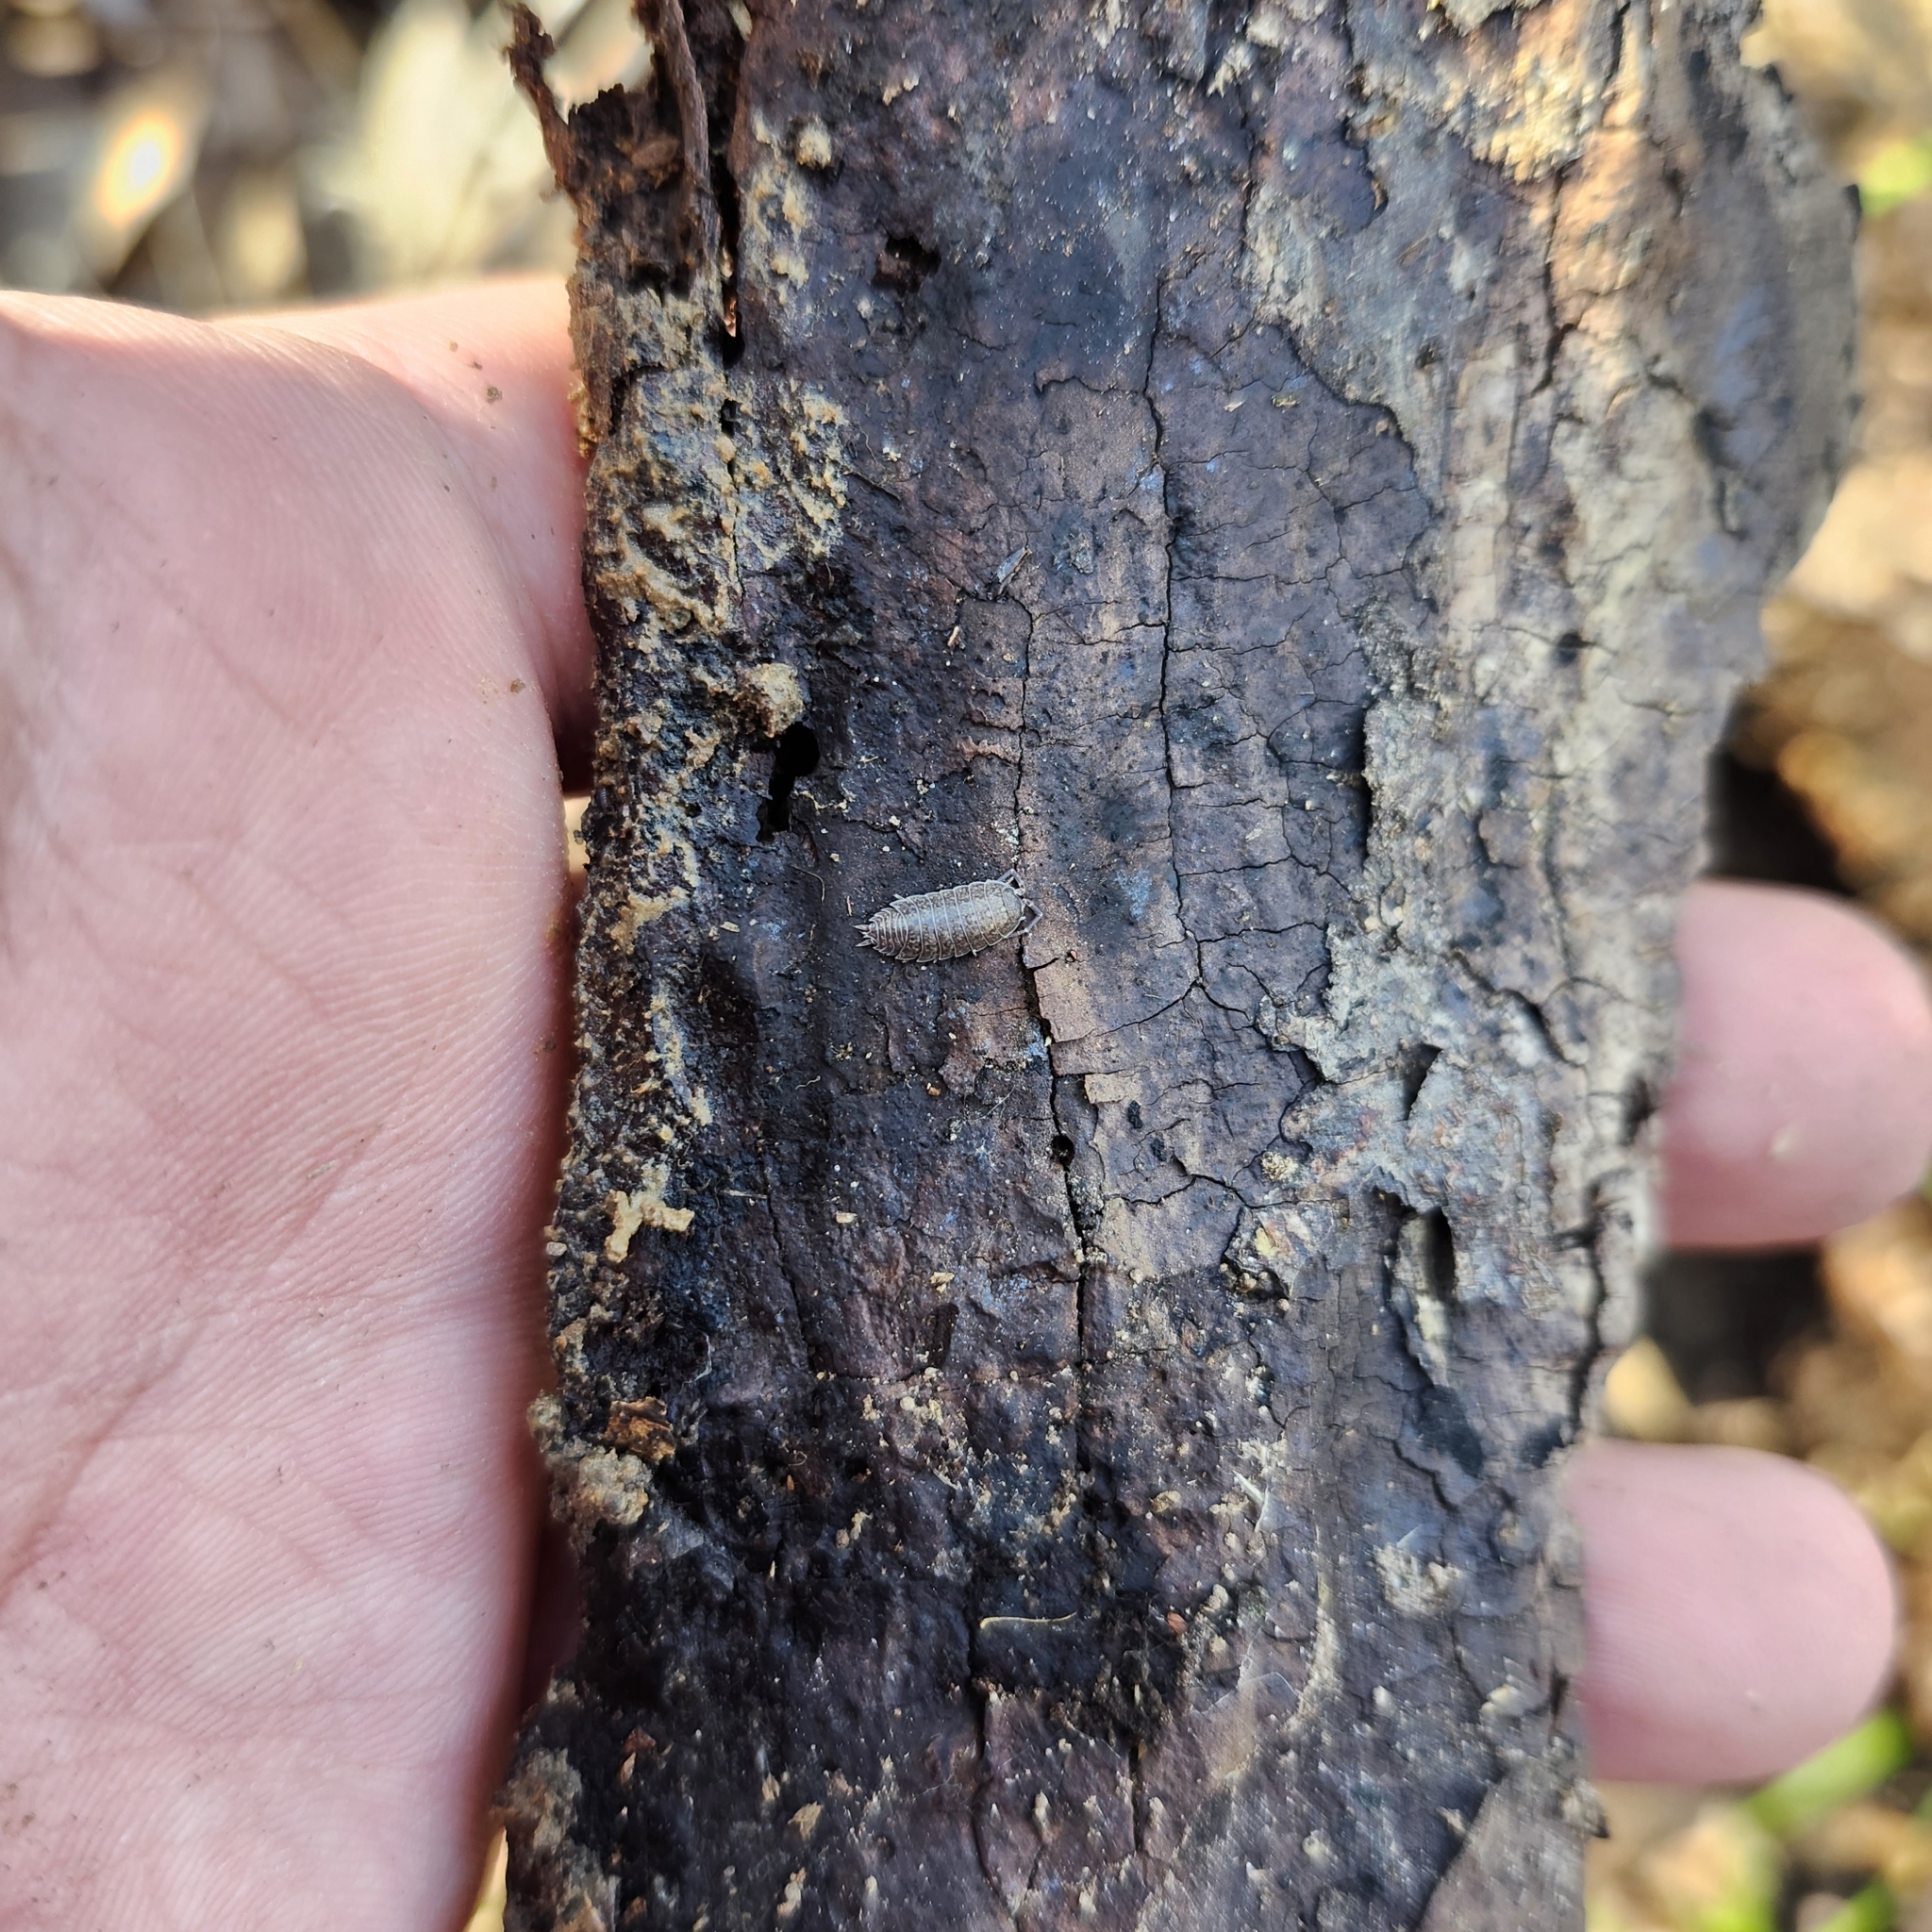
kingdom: Animalia
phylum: Arthropoda
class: Malacostraca
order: Isopoda
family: Porcellionidae
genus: Porcellionides
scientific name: Porcellionides virgatus
